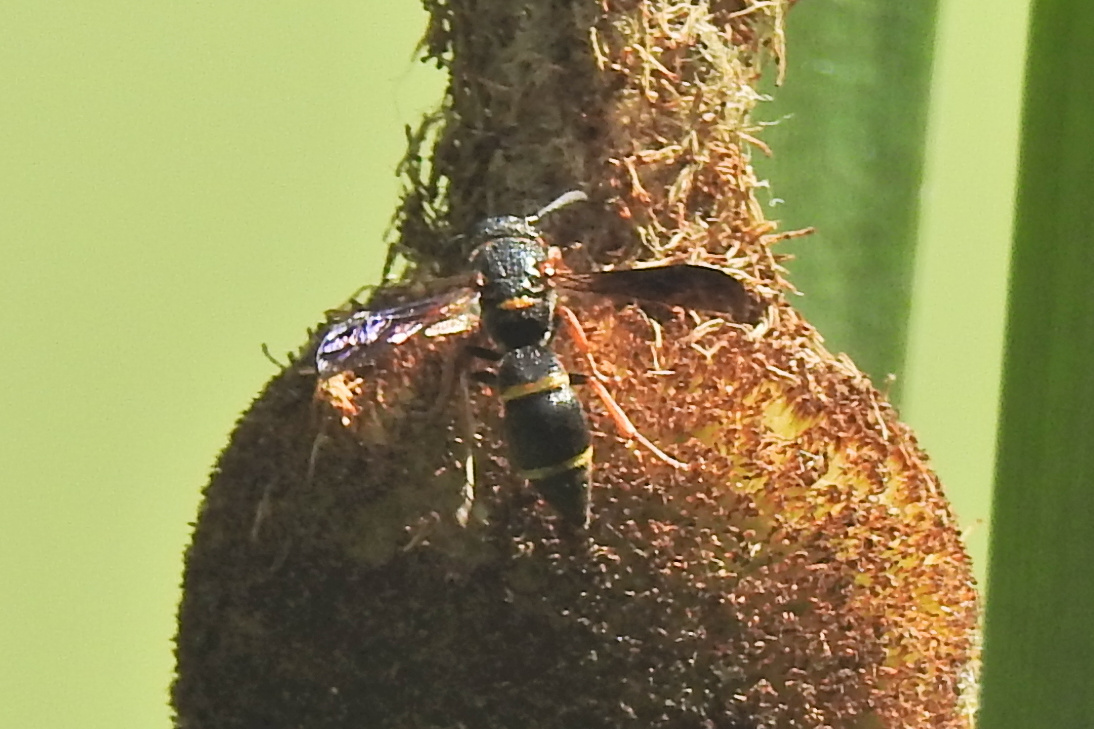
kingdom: Animalia
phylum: Arthropoda
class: Insecta
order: Hymenoptera
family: Eumenidae
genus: Parancistrocerus
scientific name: Parancistrocerus
